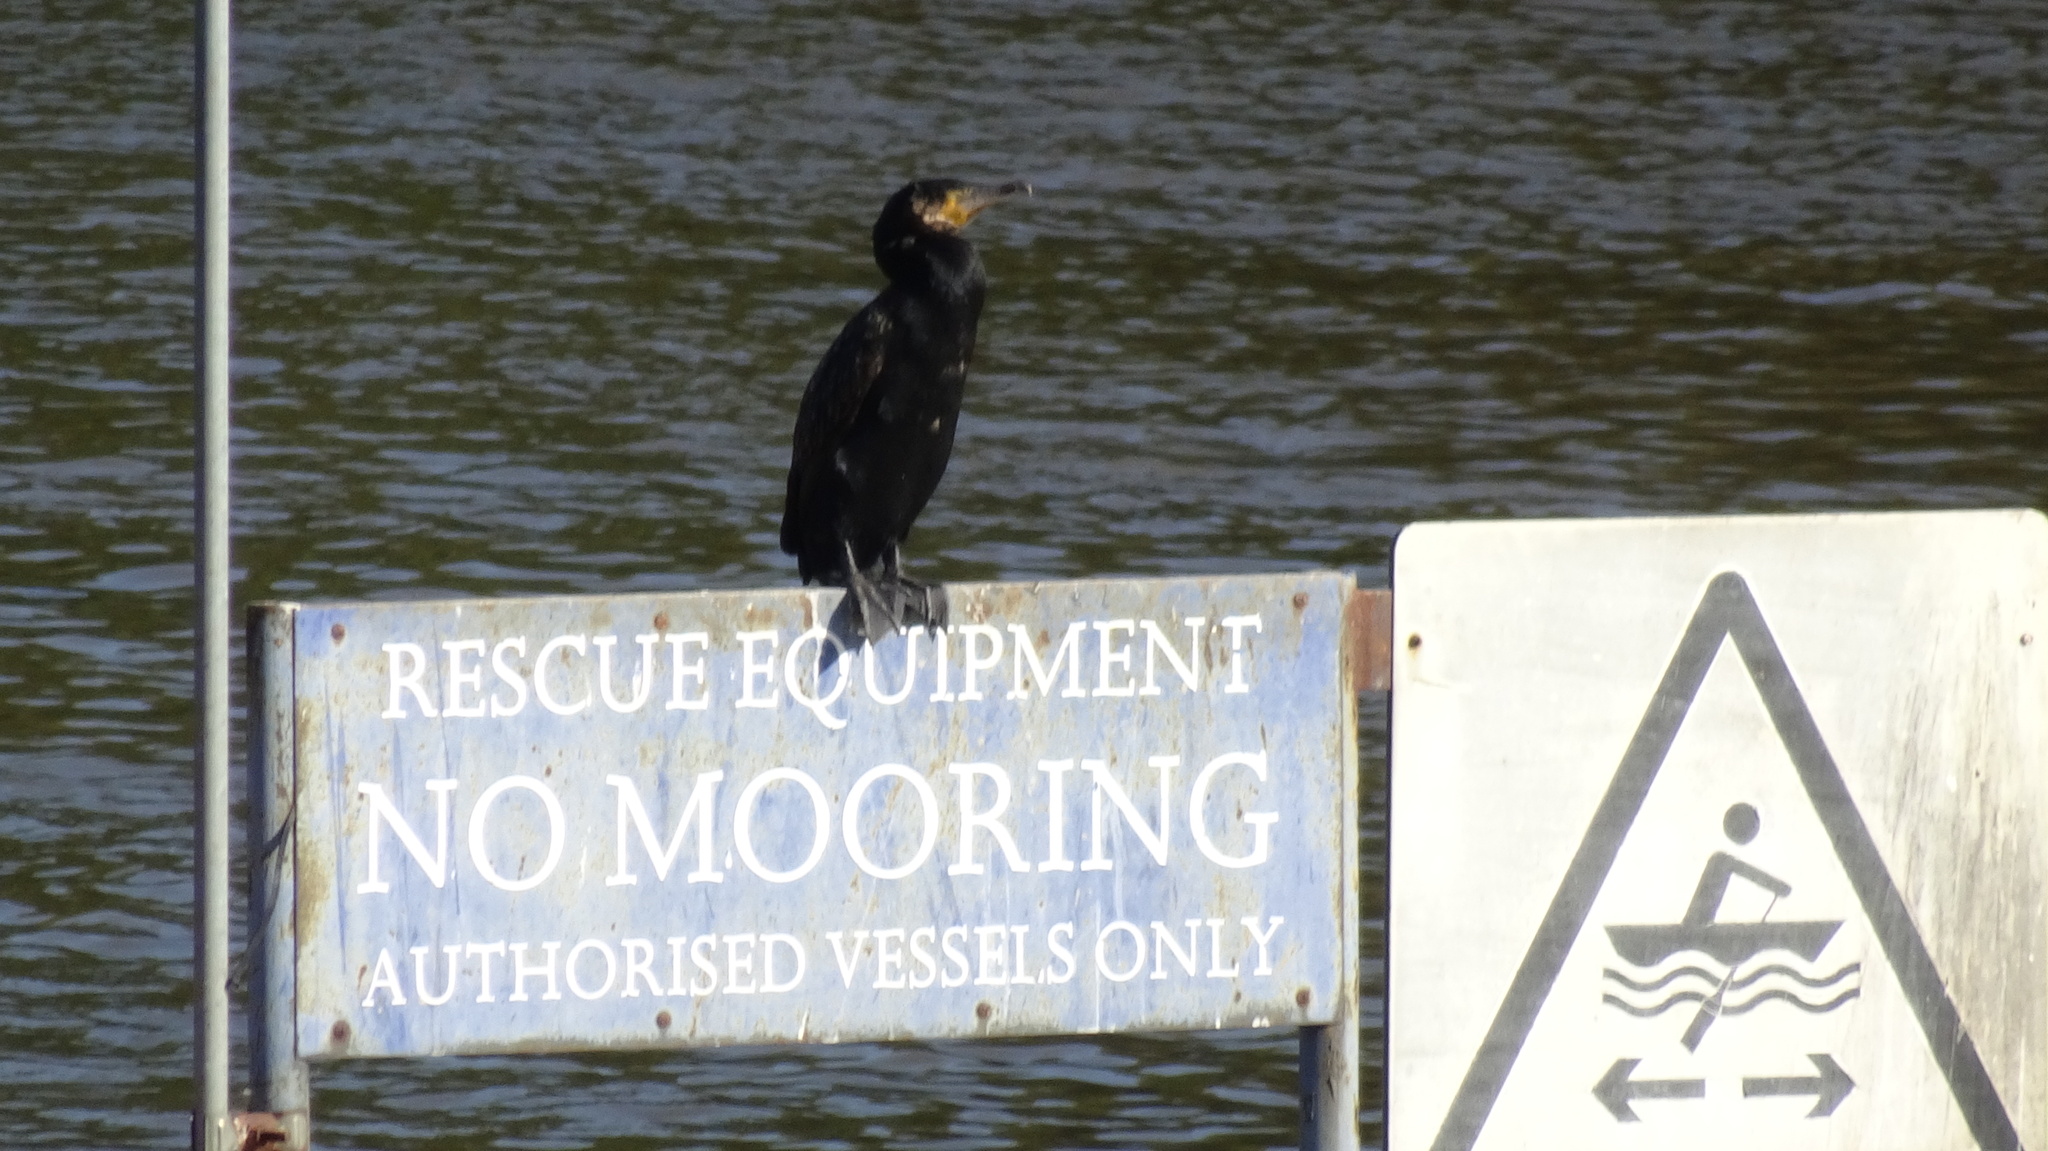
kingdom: Animalia
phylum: Chordata
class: Aves
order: Suliformes
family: Phalacrocoracidae
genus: Phalacrocorax
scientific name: Phalacrocorax carbo
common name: Great cormorant
